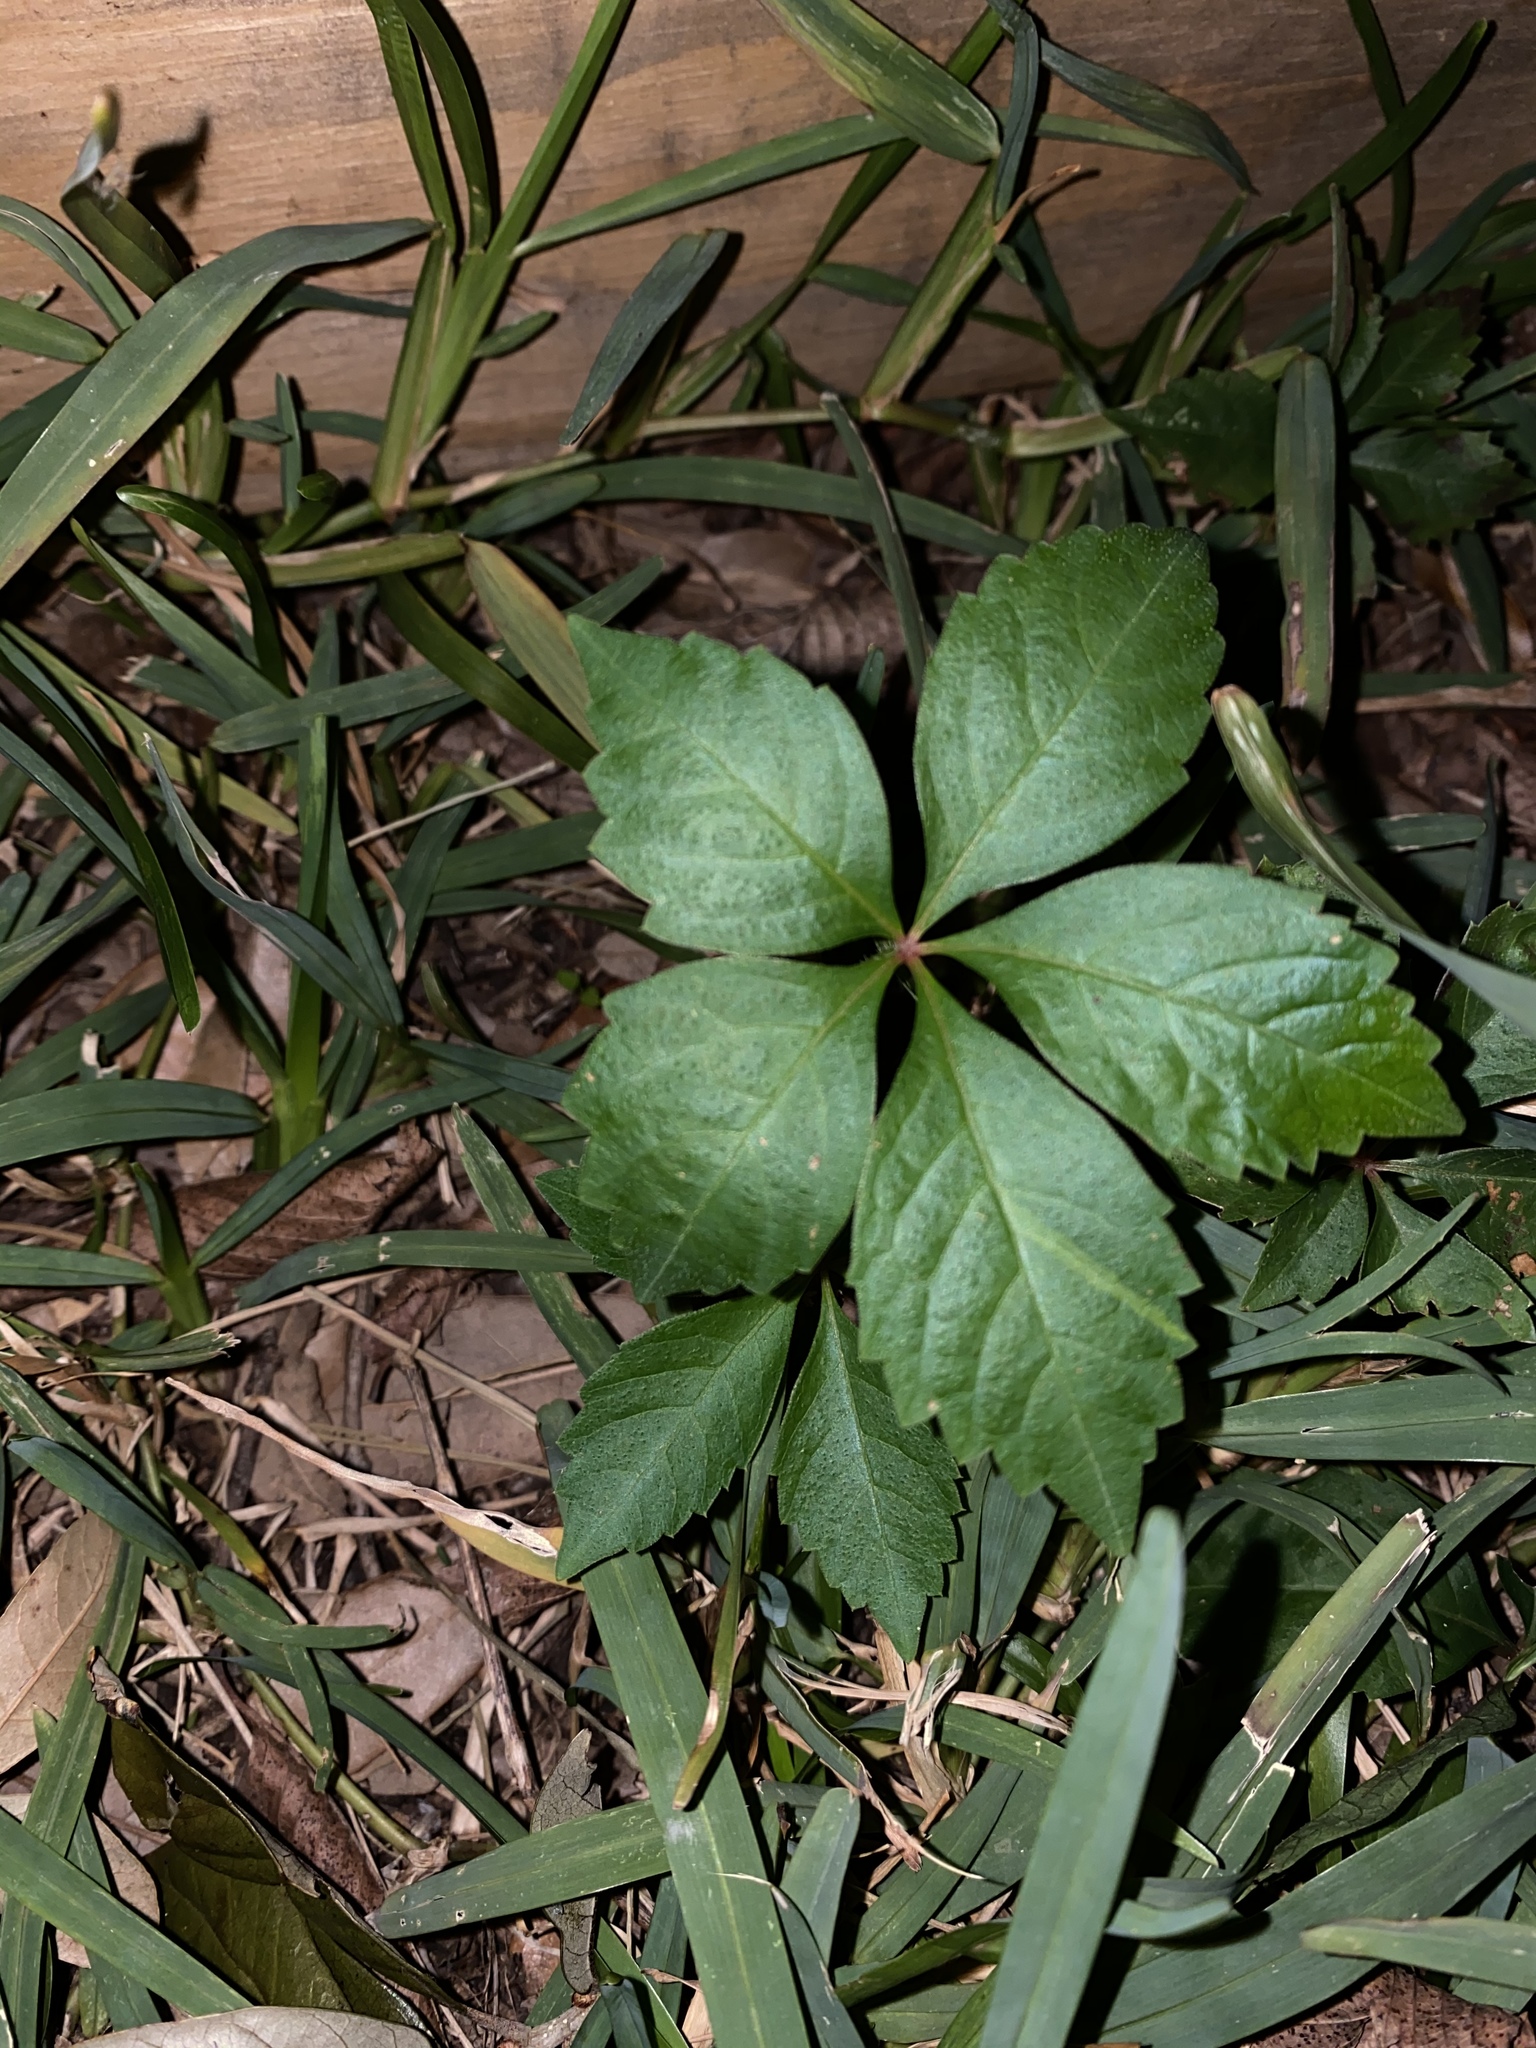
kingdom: Plantae
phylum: Tracheophyta
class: Magnoliopsida
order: Vitales
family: Vitaceae
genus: Parthenocissus
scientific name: Parthenocissus quinquefolia
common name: Virginia-creeper
